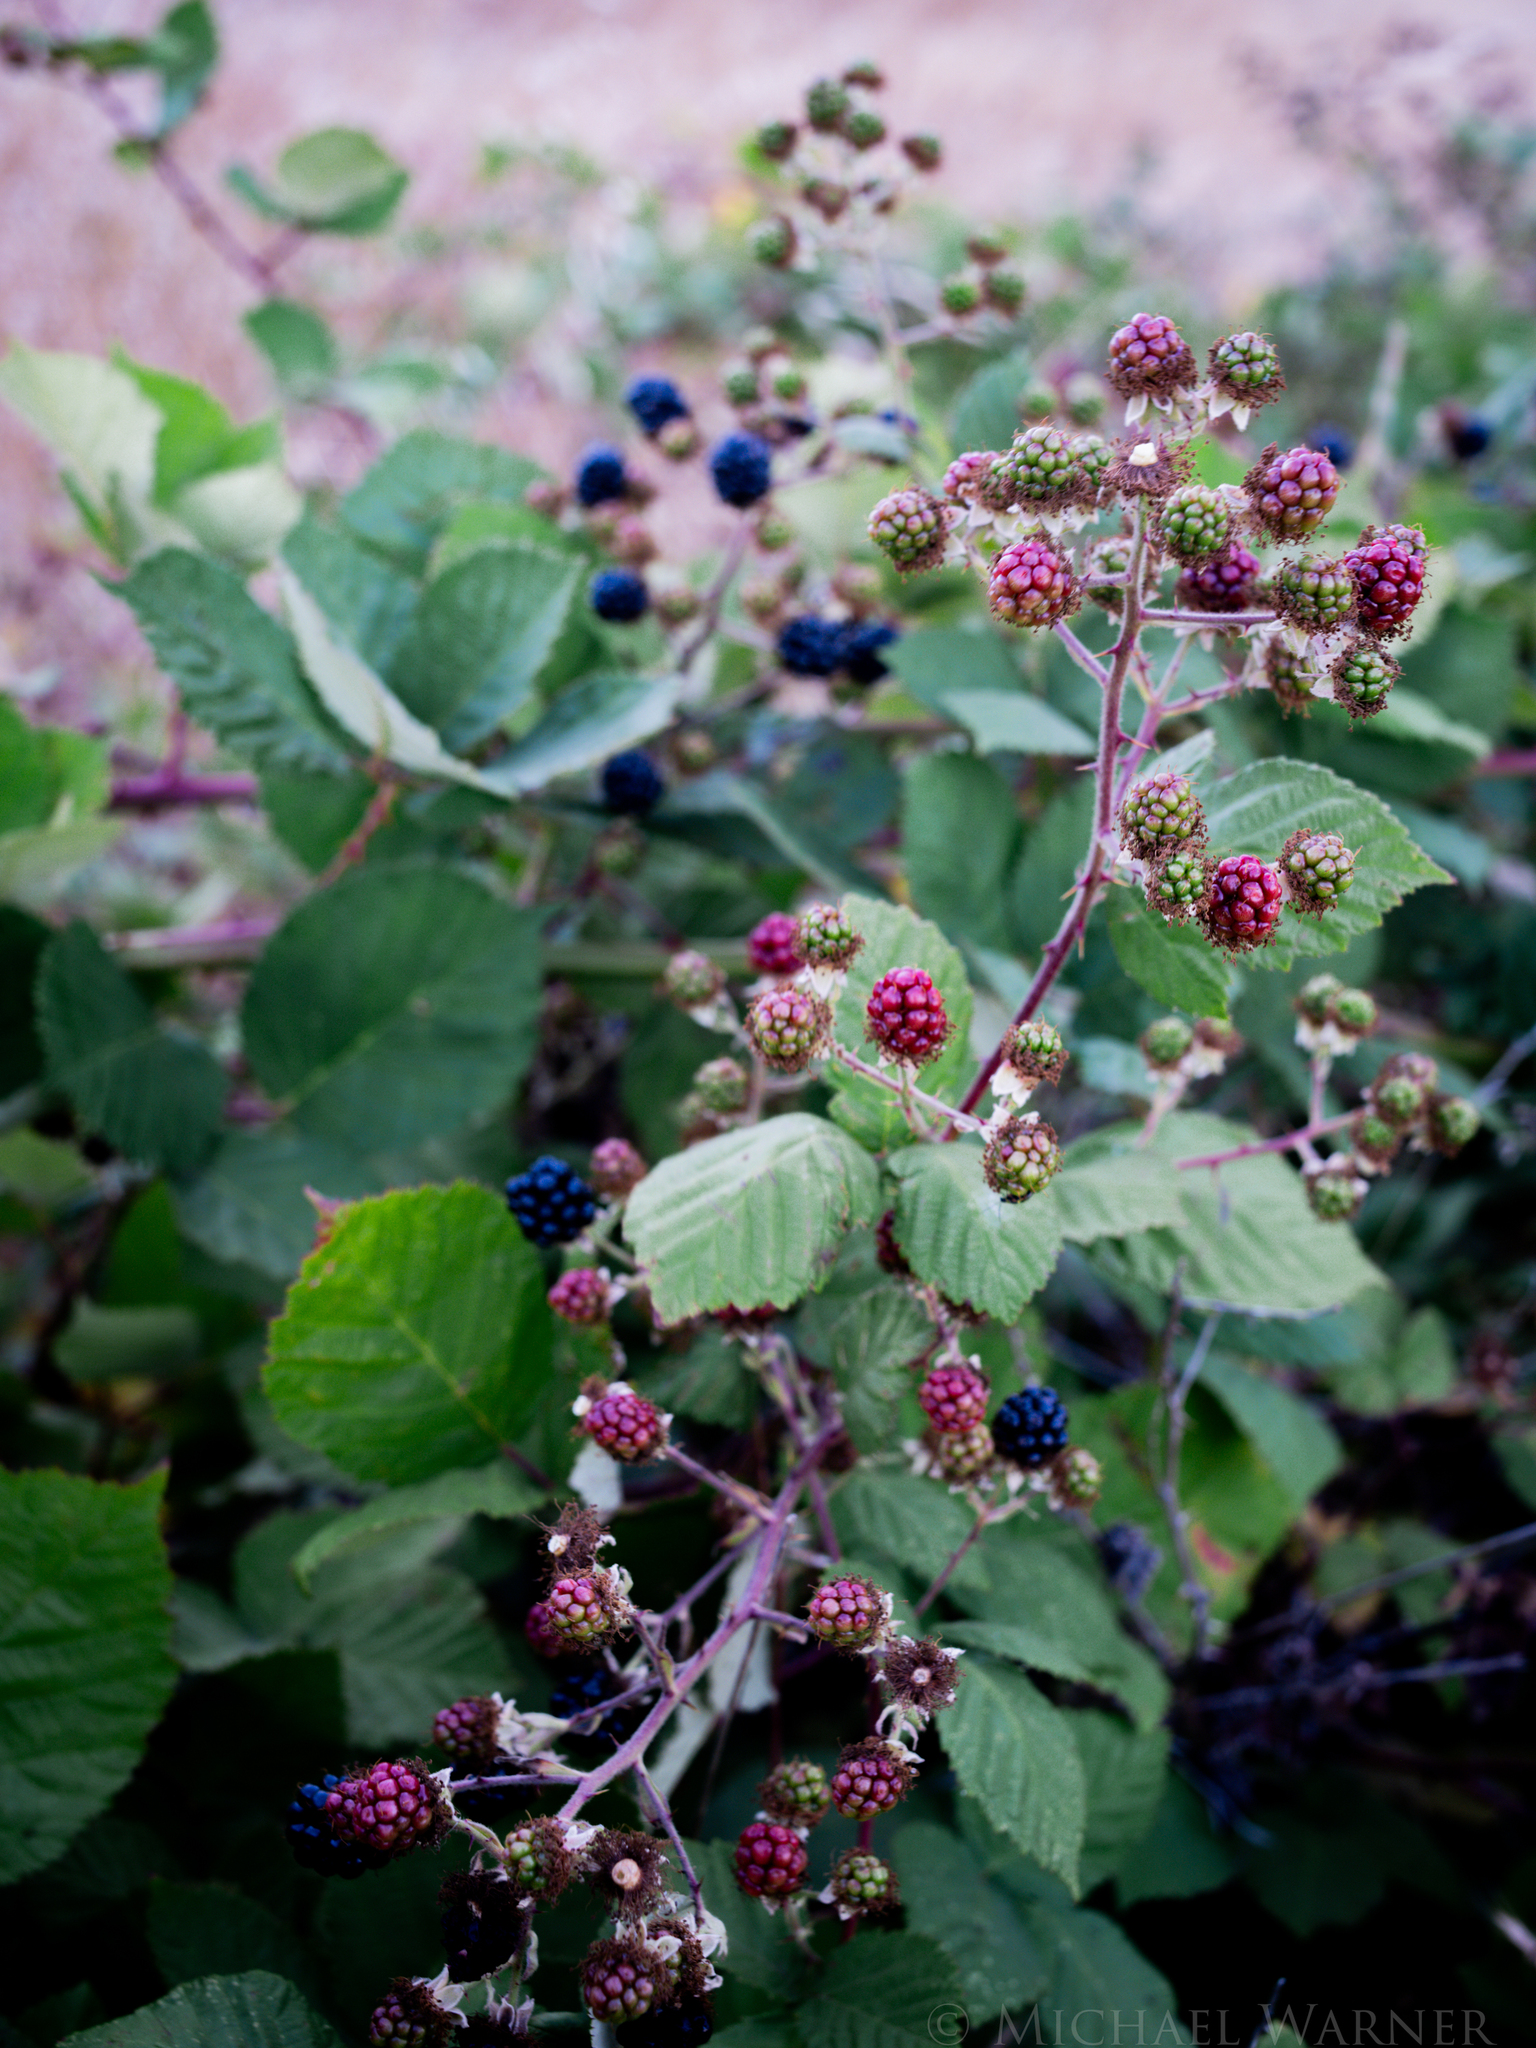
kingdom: Plantae
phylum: Tracheophyta
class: Magnoliopsida
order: Rosales
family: Rosaceae
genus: Rubus
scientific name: Rubus armeniacus
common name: Himalayan blackberry
